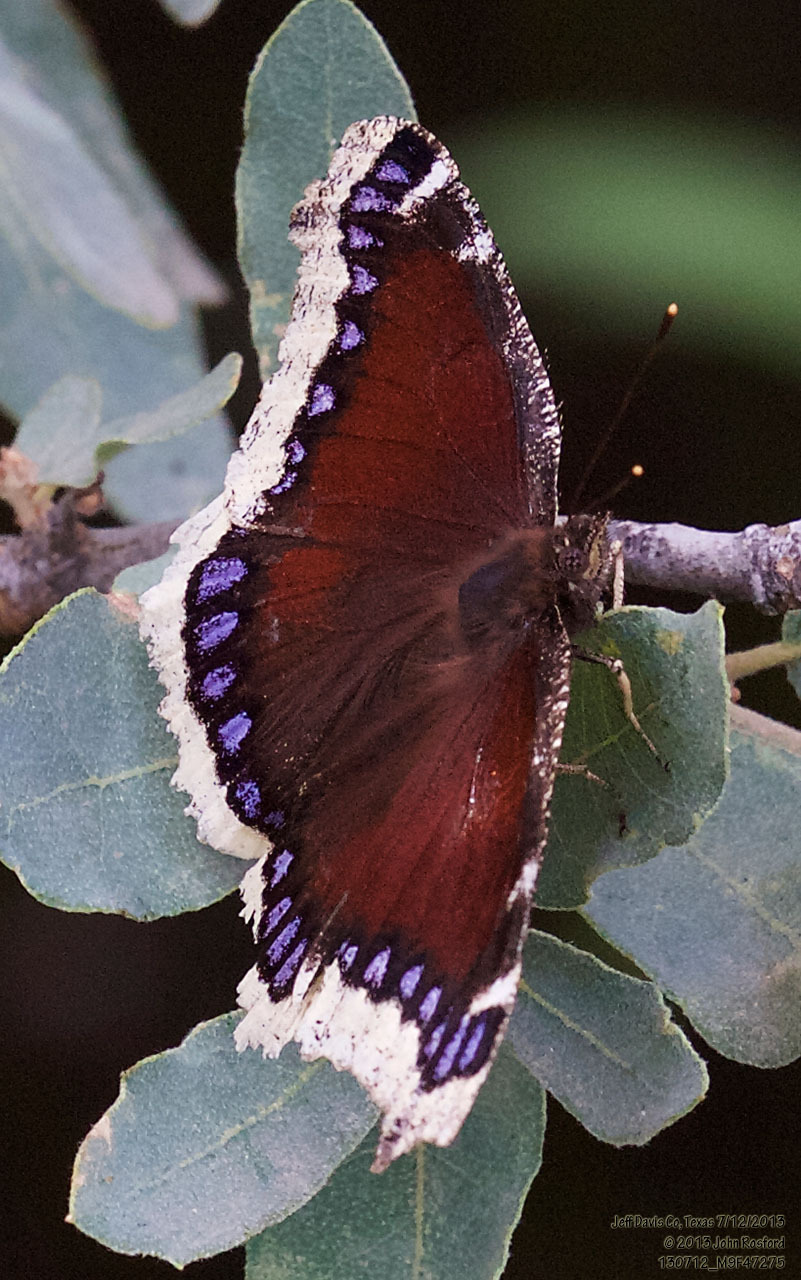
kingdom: Animalia
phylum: Arthropoda
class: Insecta
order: Lepidoptera
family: Nymphalidae
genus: Nymphalis
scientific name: Nymphalis antiopa
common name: Camberwell beauty
